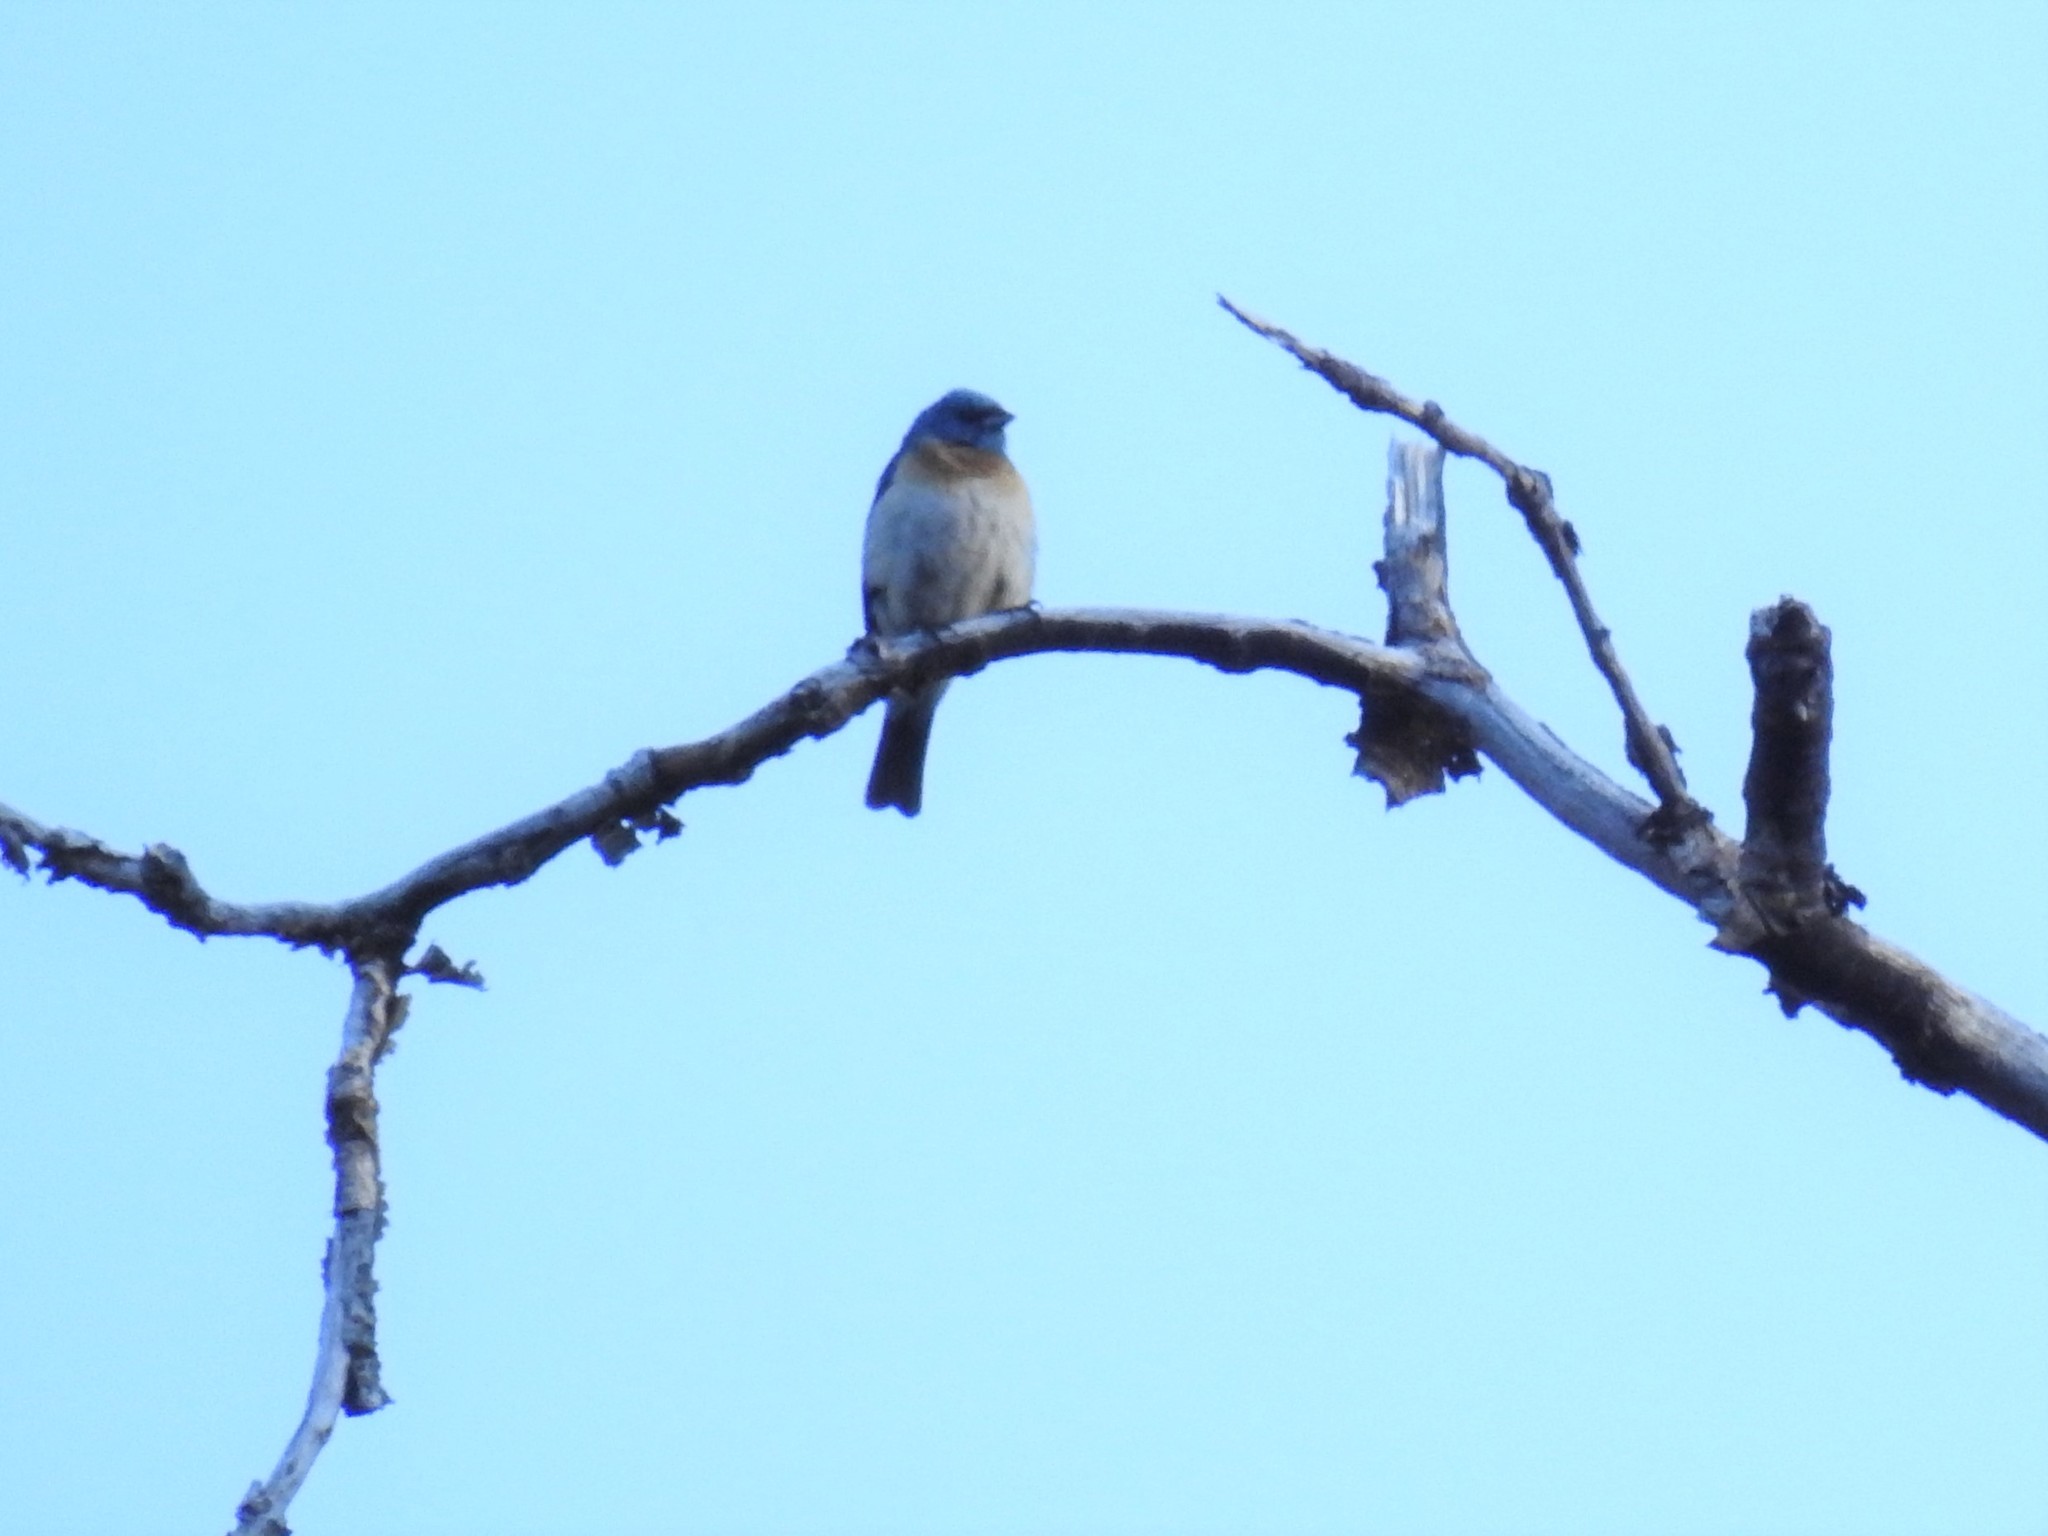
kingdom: Animalia
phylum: Chordata
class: Aves
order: Passeriformes
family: Cardinalidae
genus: Passerina
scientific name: Passerina amoena
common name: Lazuli bunting
